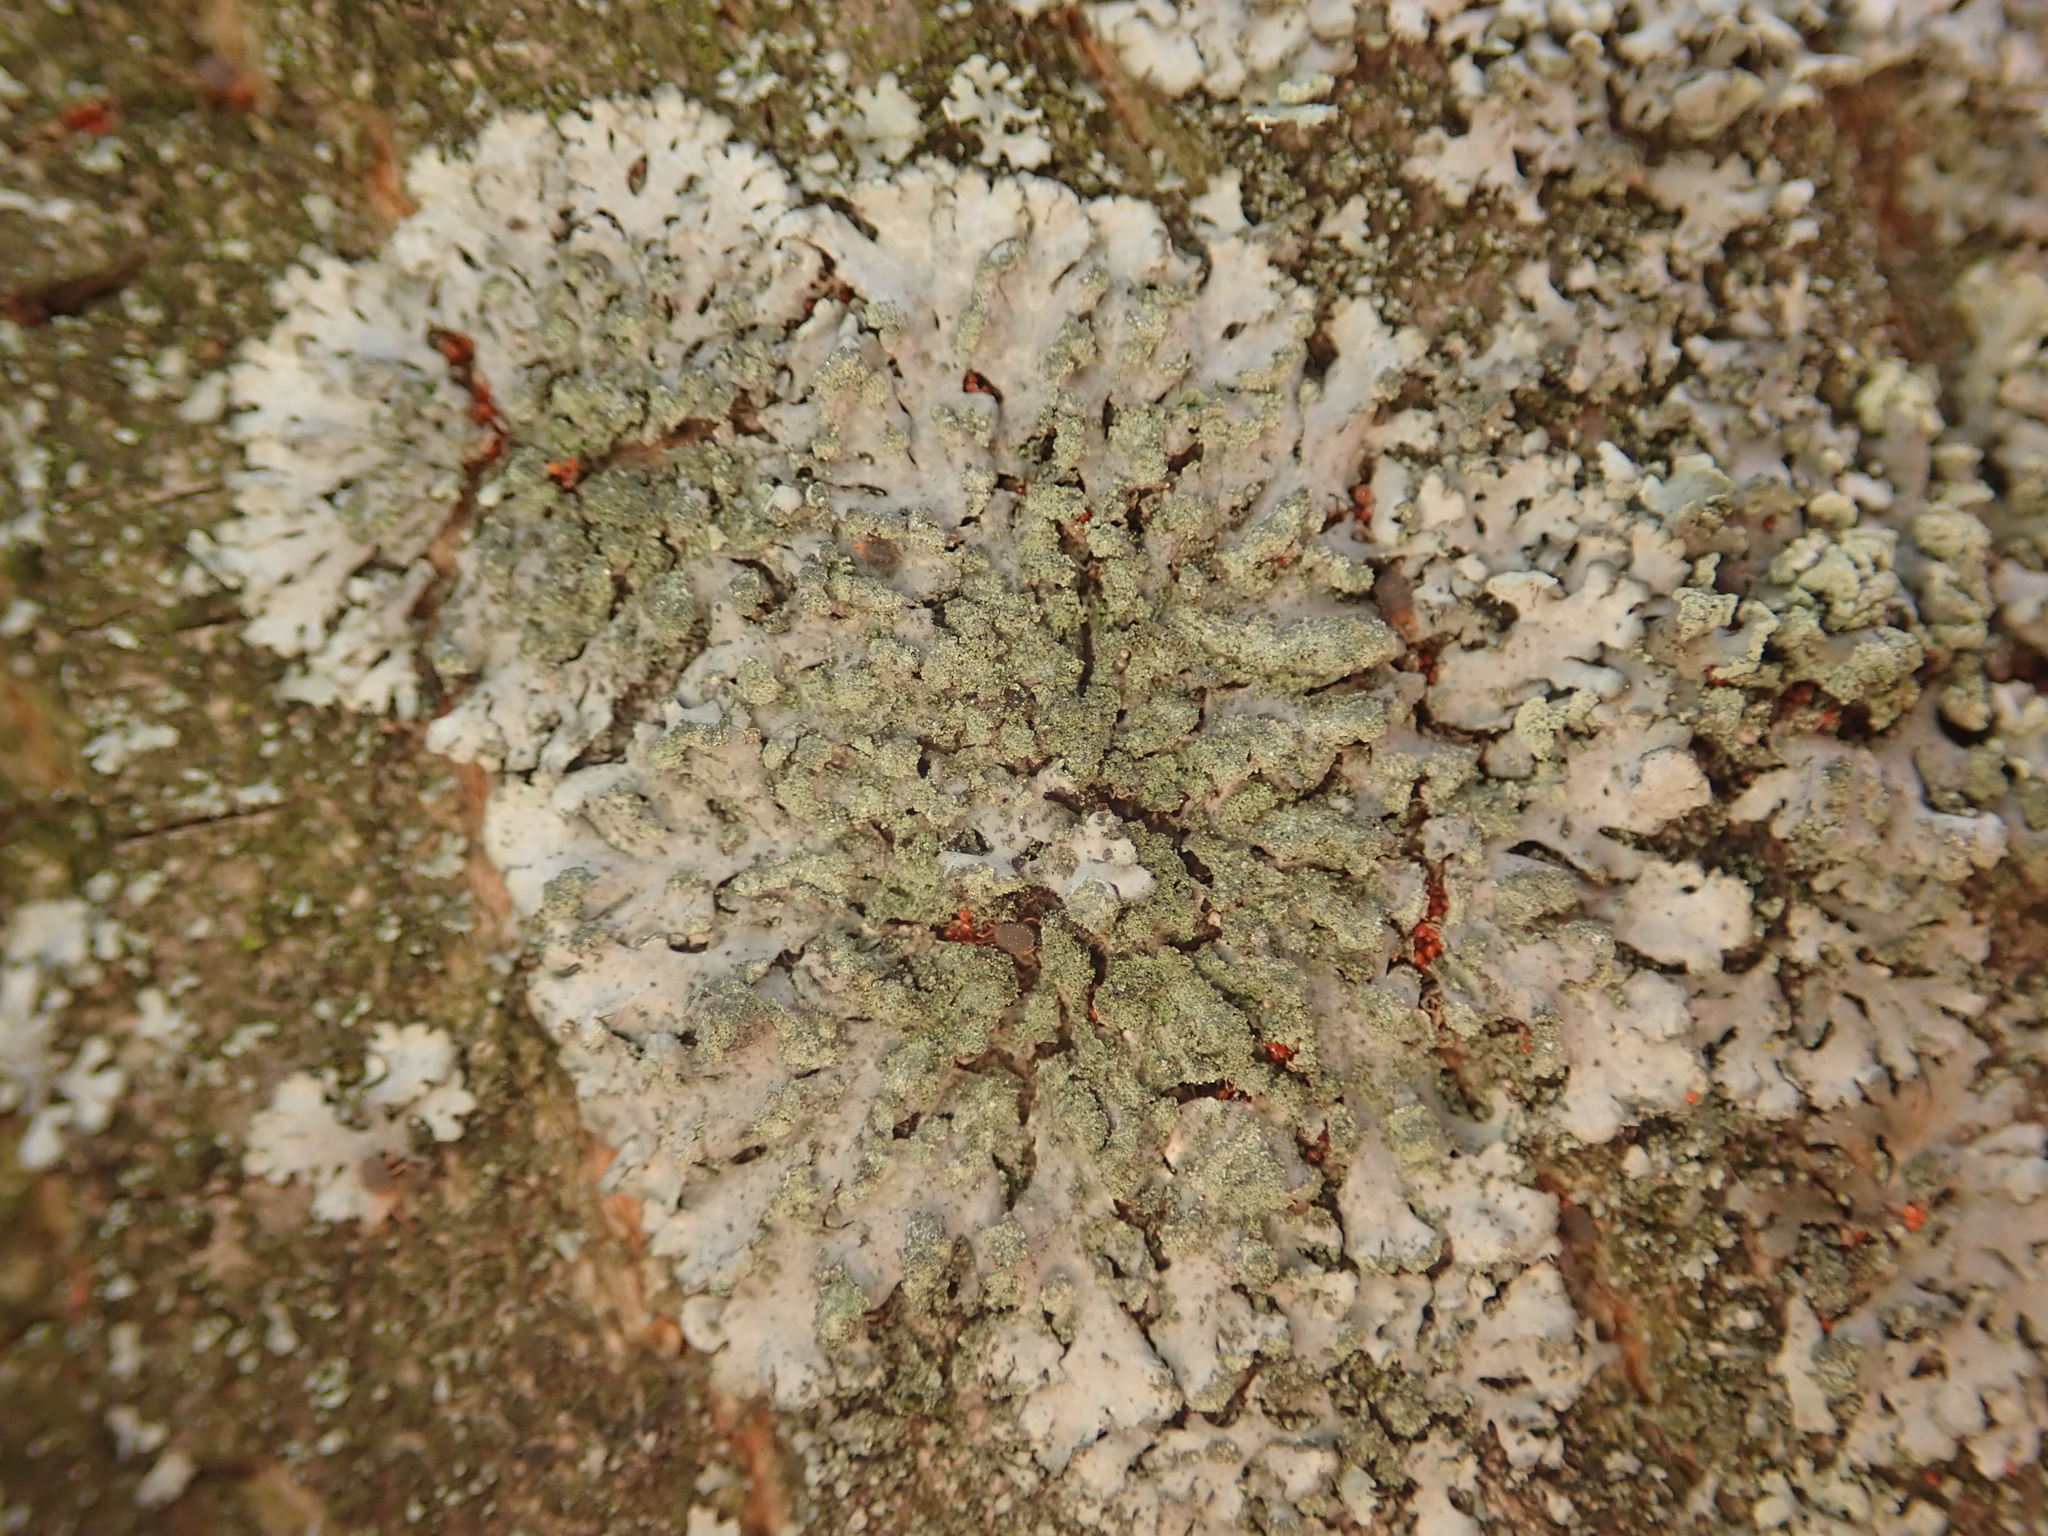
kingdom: Fungi
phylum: Ascomycota
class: Lecanoromycetes
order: Caliciales
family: Physciaceae
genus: Phaeophyscia
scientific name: Phaeophyscia orbicularis
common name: Mealy shadow lichen
